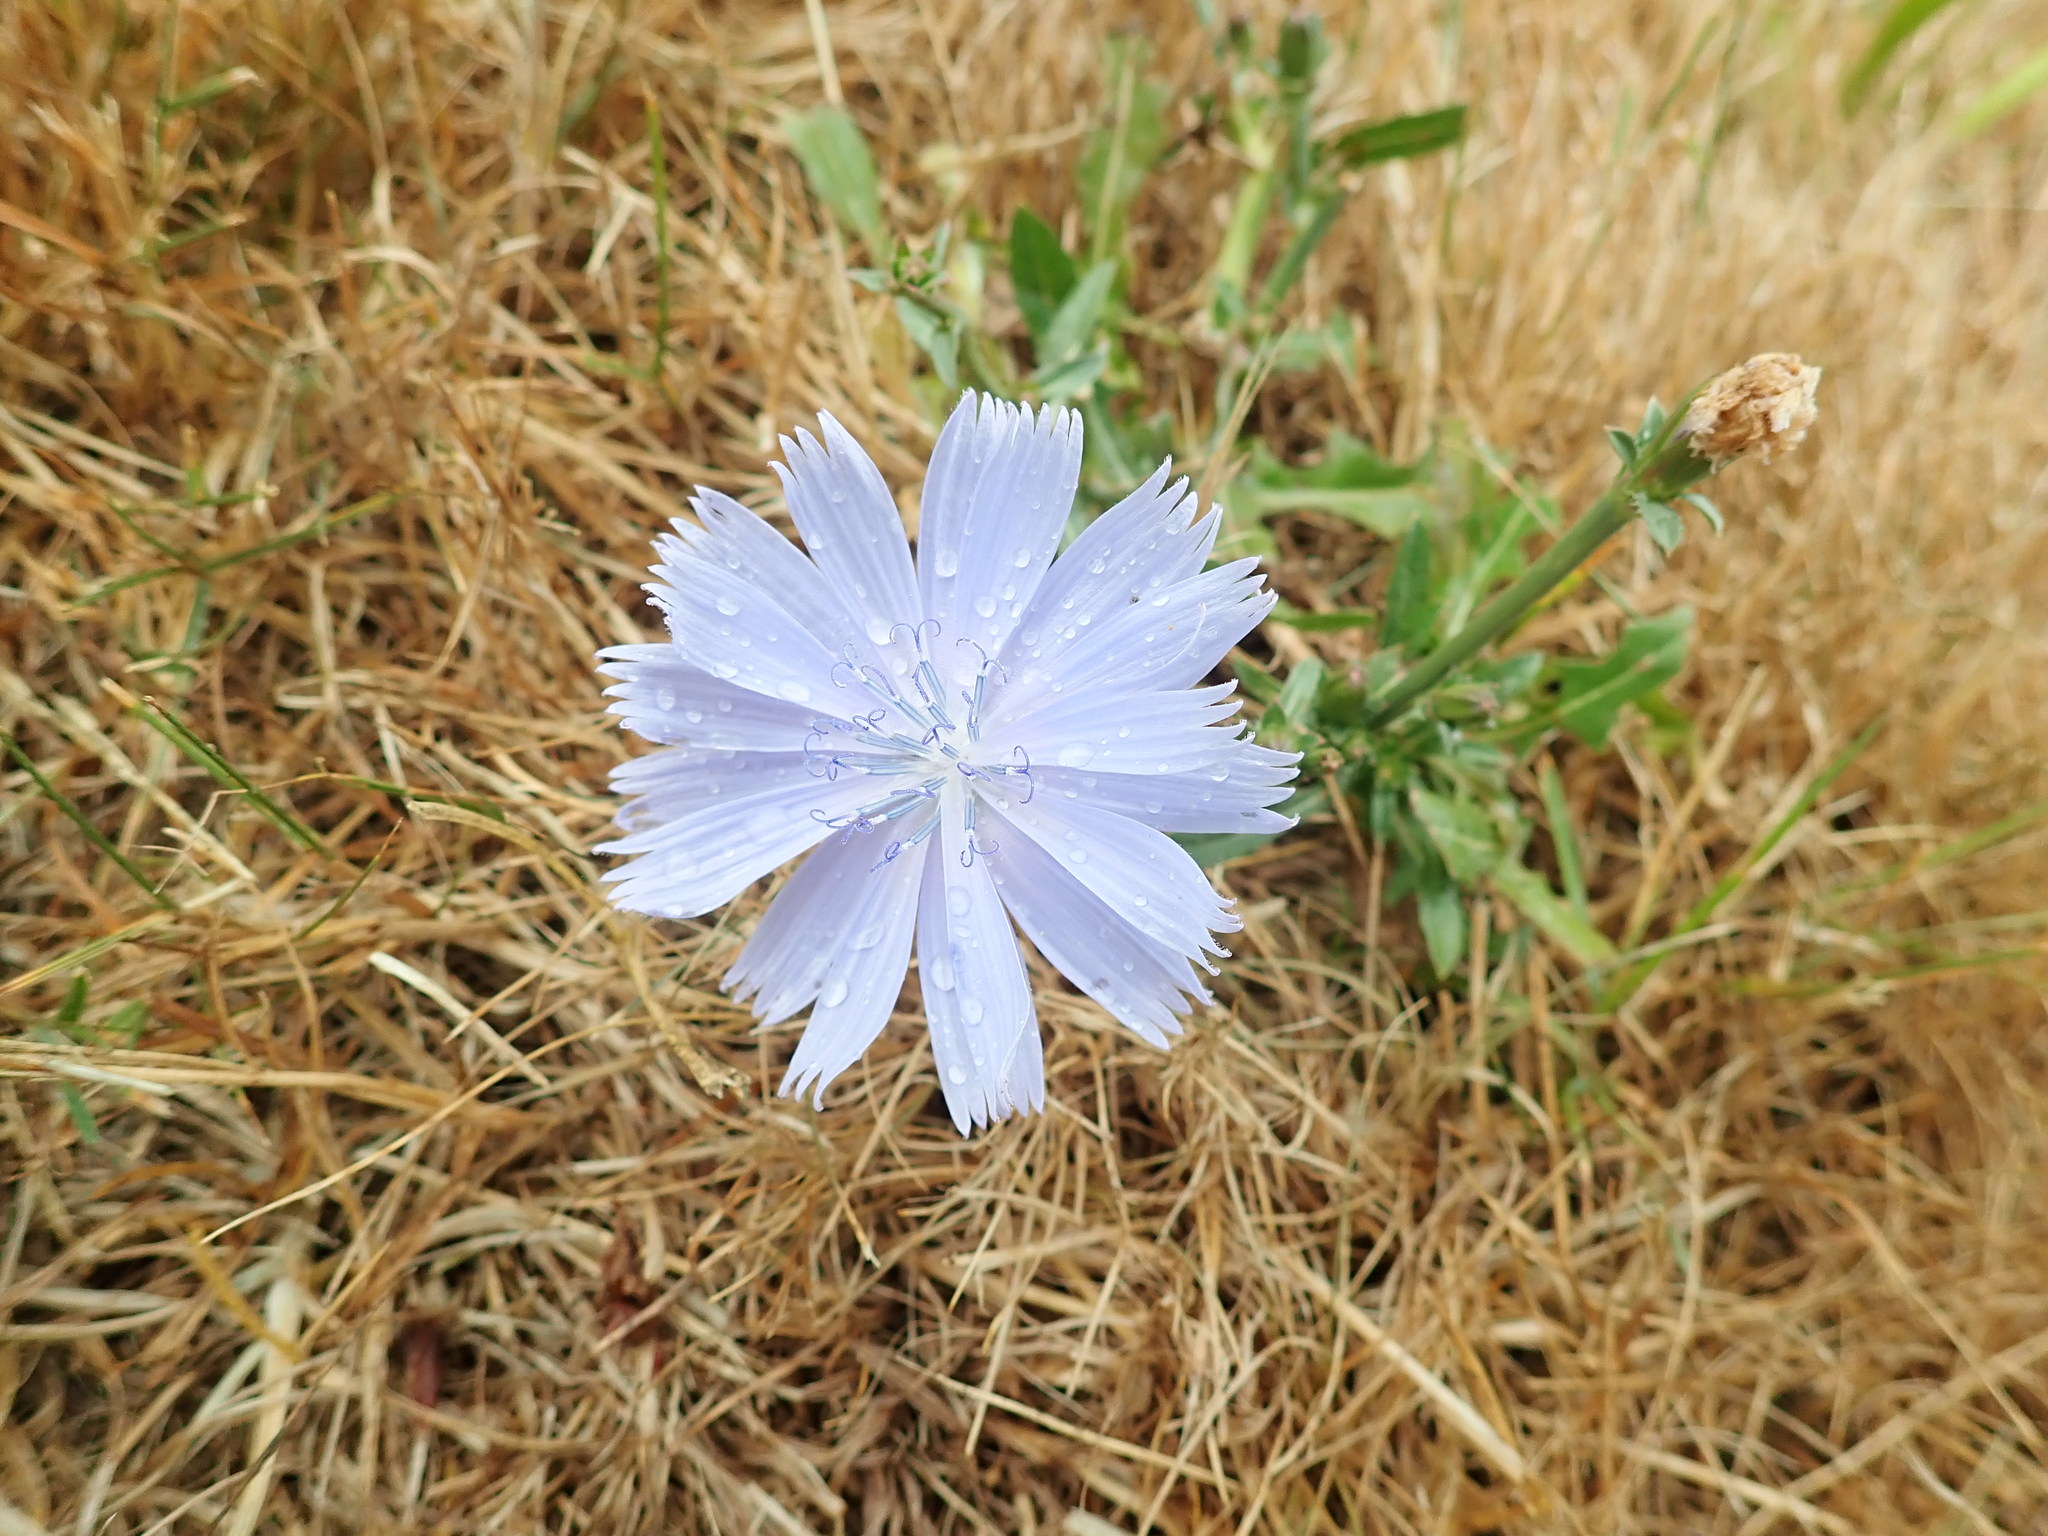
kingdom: Plantae
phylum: Tracheophyta
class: Magnoliopsida
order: Asterales
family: Asteraceae
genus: Cichorium
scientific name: Cichorium intybus
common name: Chicory
